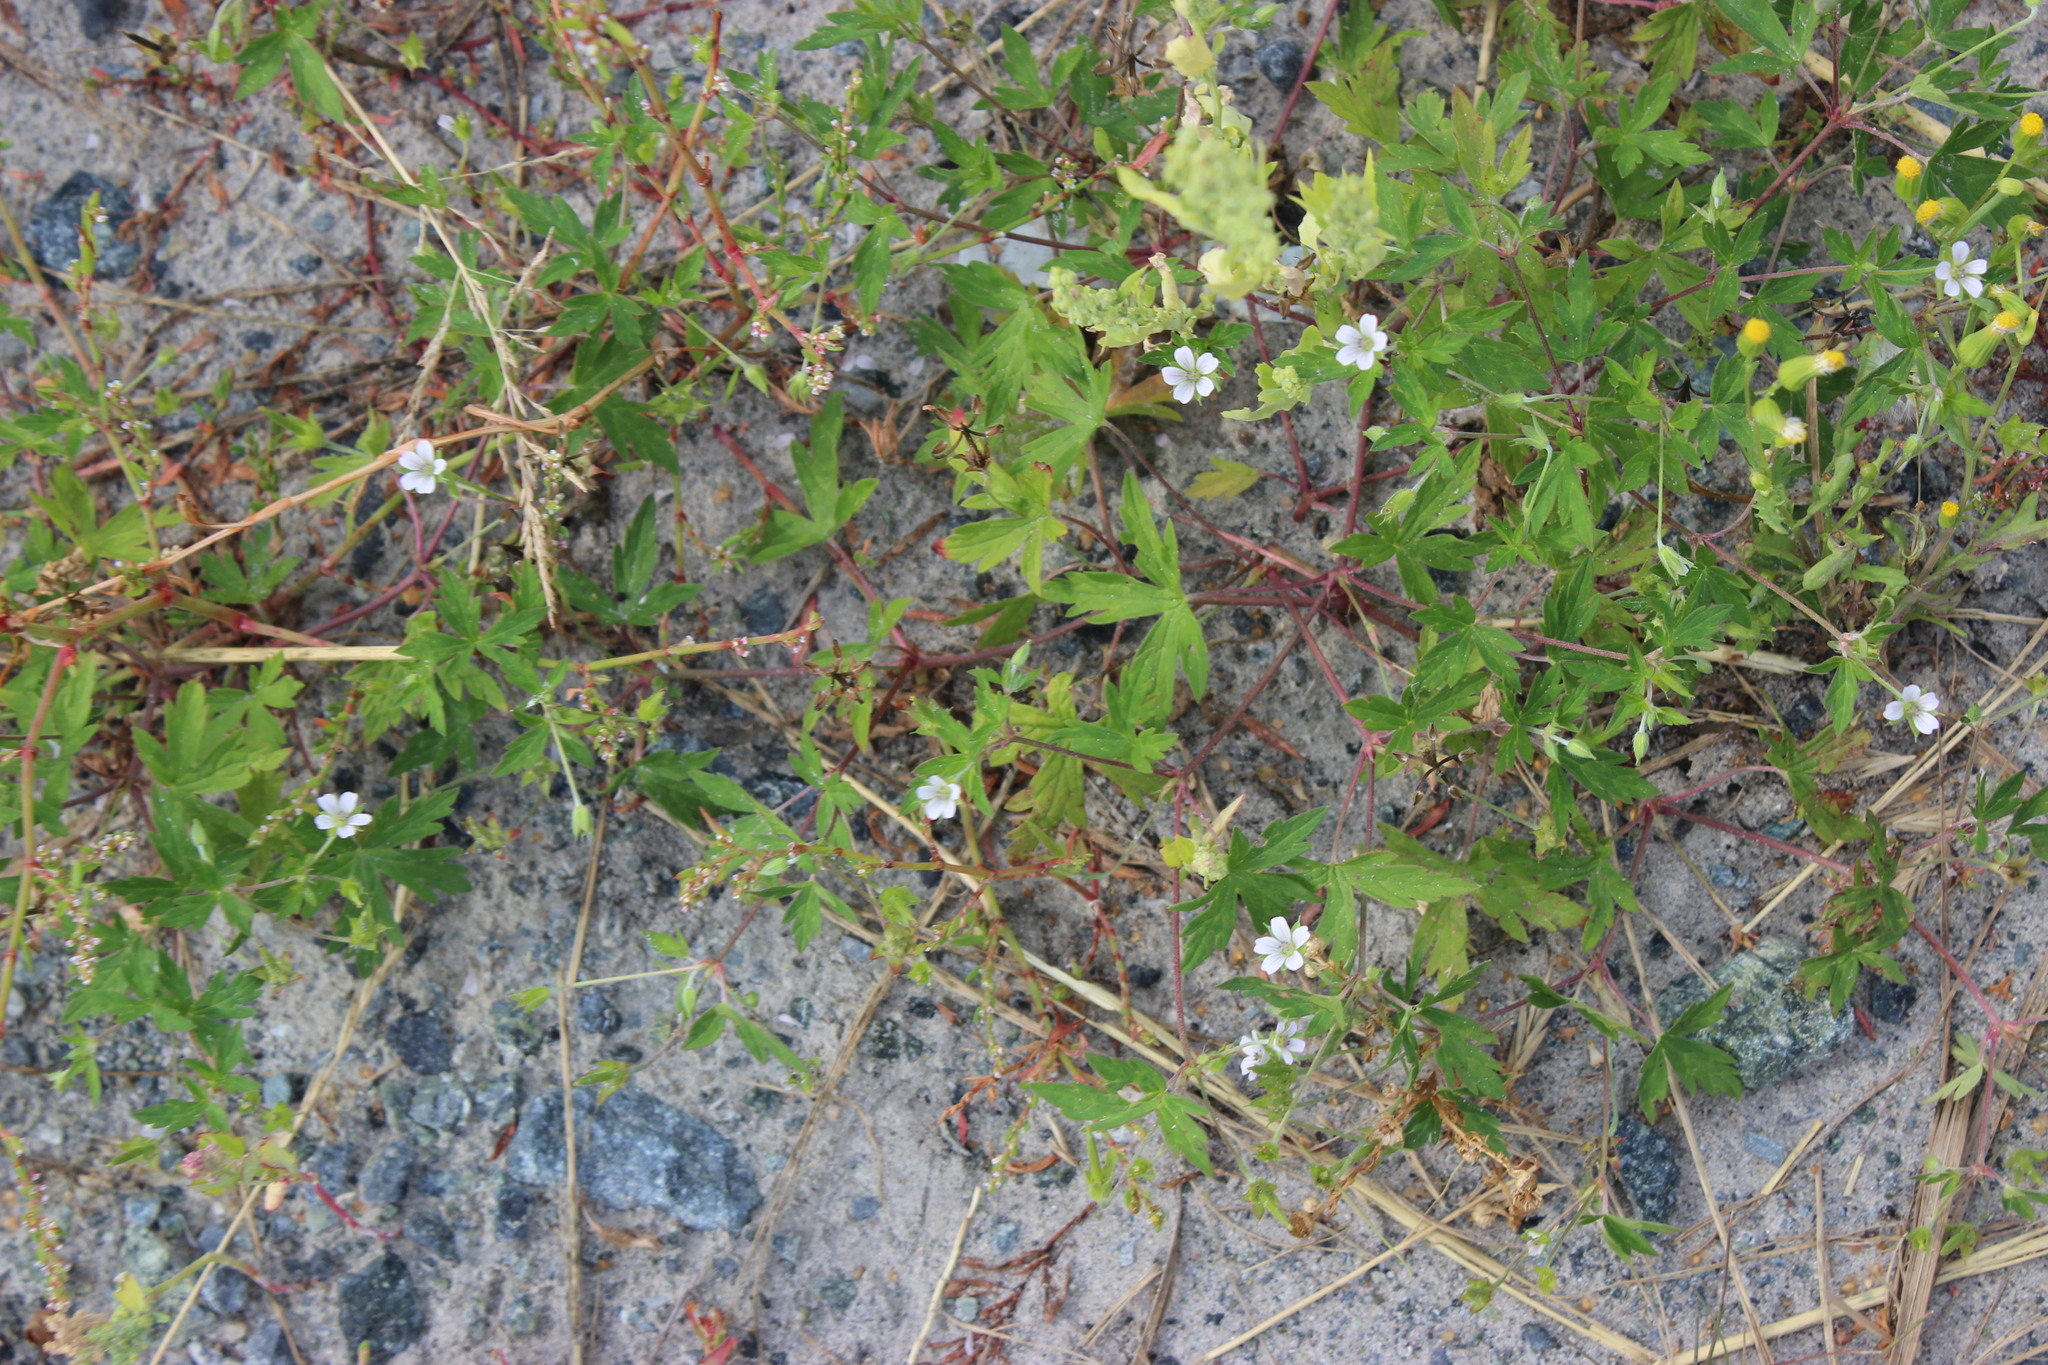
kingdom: Plantae
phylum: Tracheophyta
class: Magnoliopsida
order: Geraniales
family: Geraniaceae
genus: Geranium
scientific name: Geranium sibiricum
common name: Siberian crane's-bill
